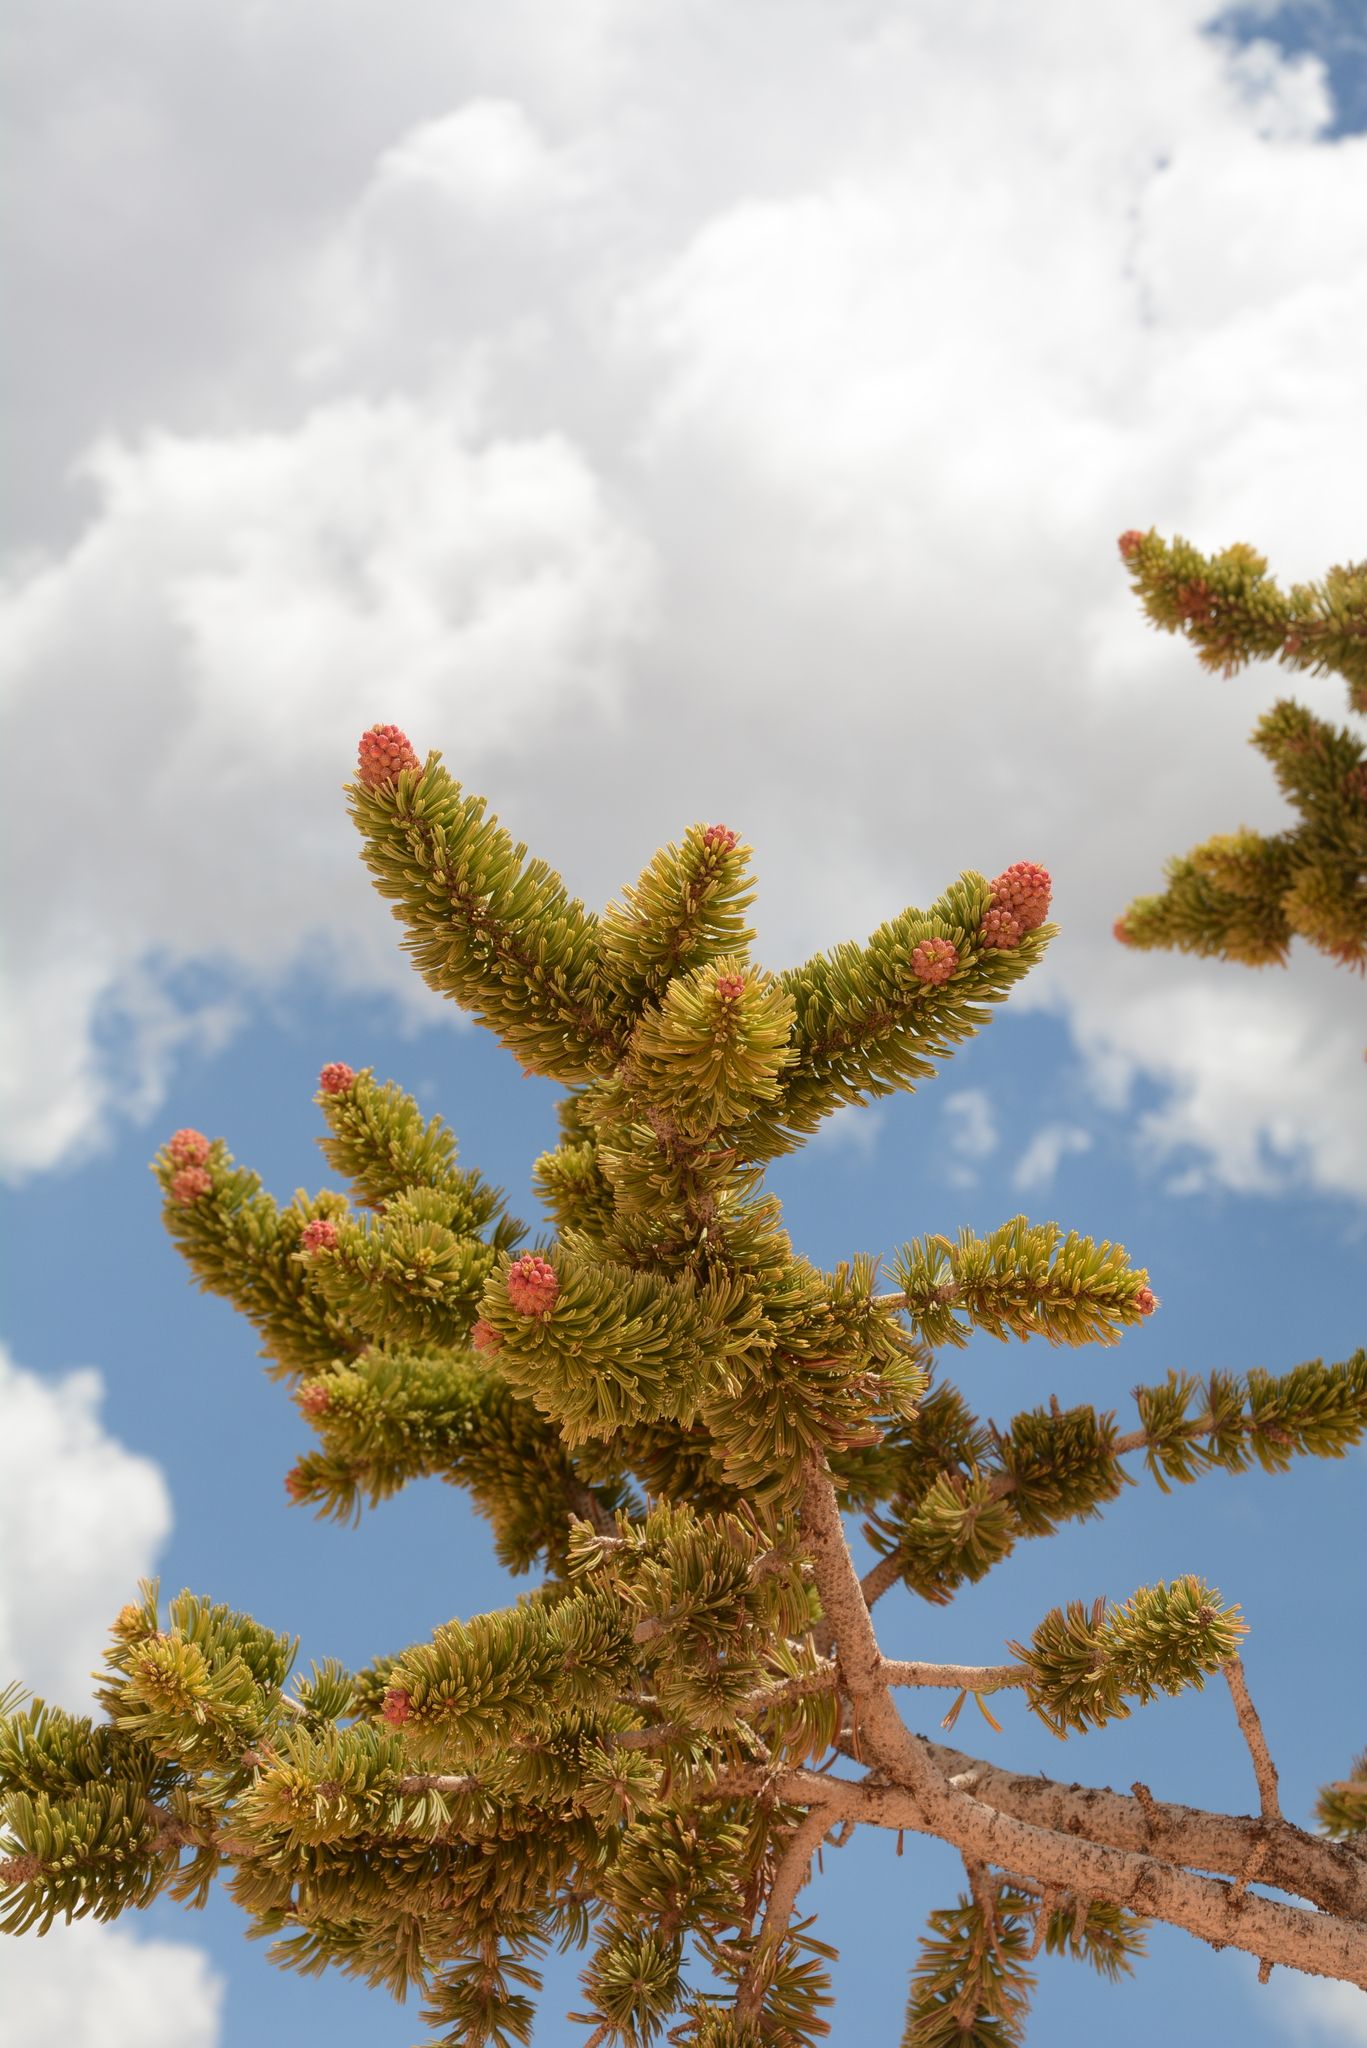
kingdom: Plantae
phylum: Tracheophyta
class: Pinopsida
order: Pinales
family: Pinaceae
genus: Pinus
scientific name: Pinus longaeva
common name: Intermountain bristlecone pine
